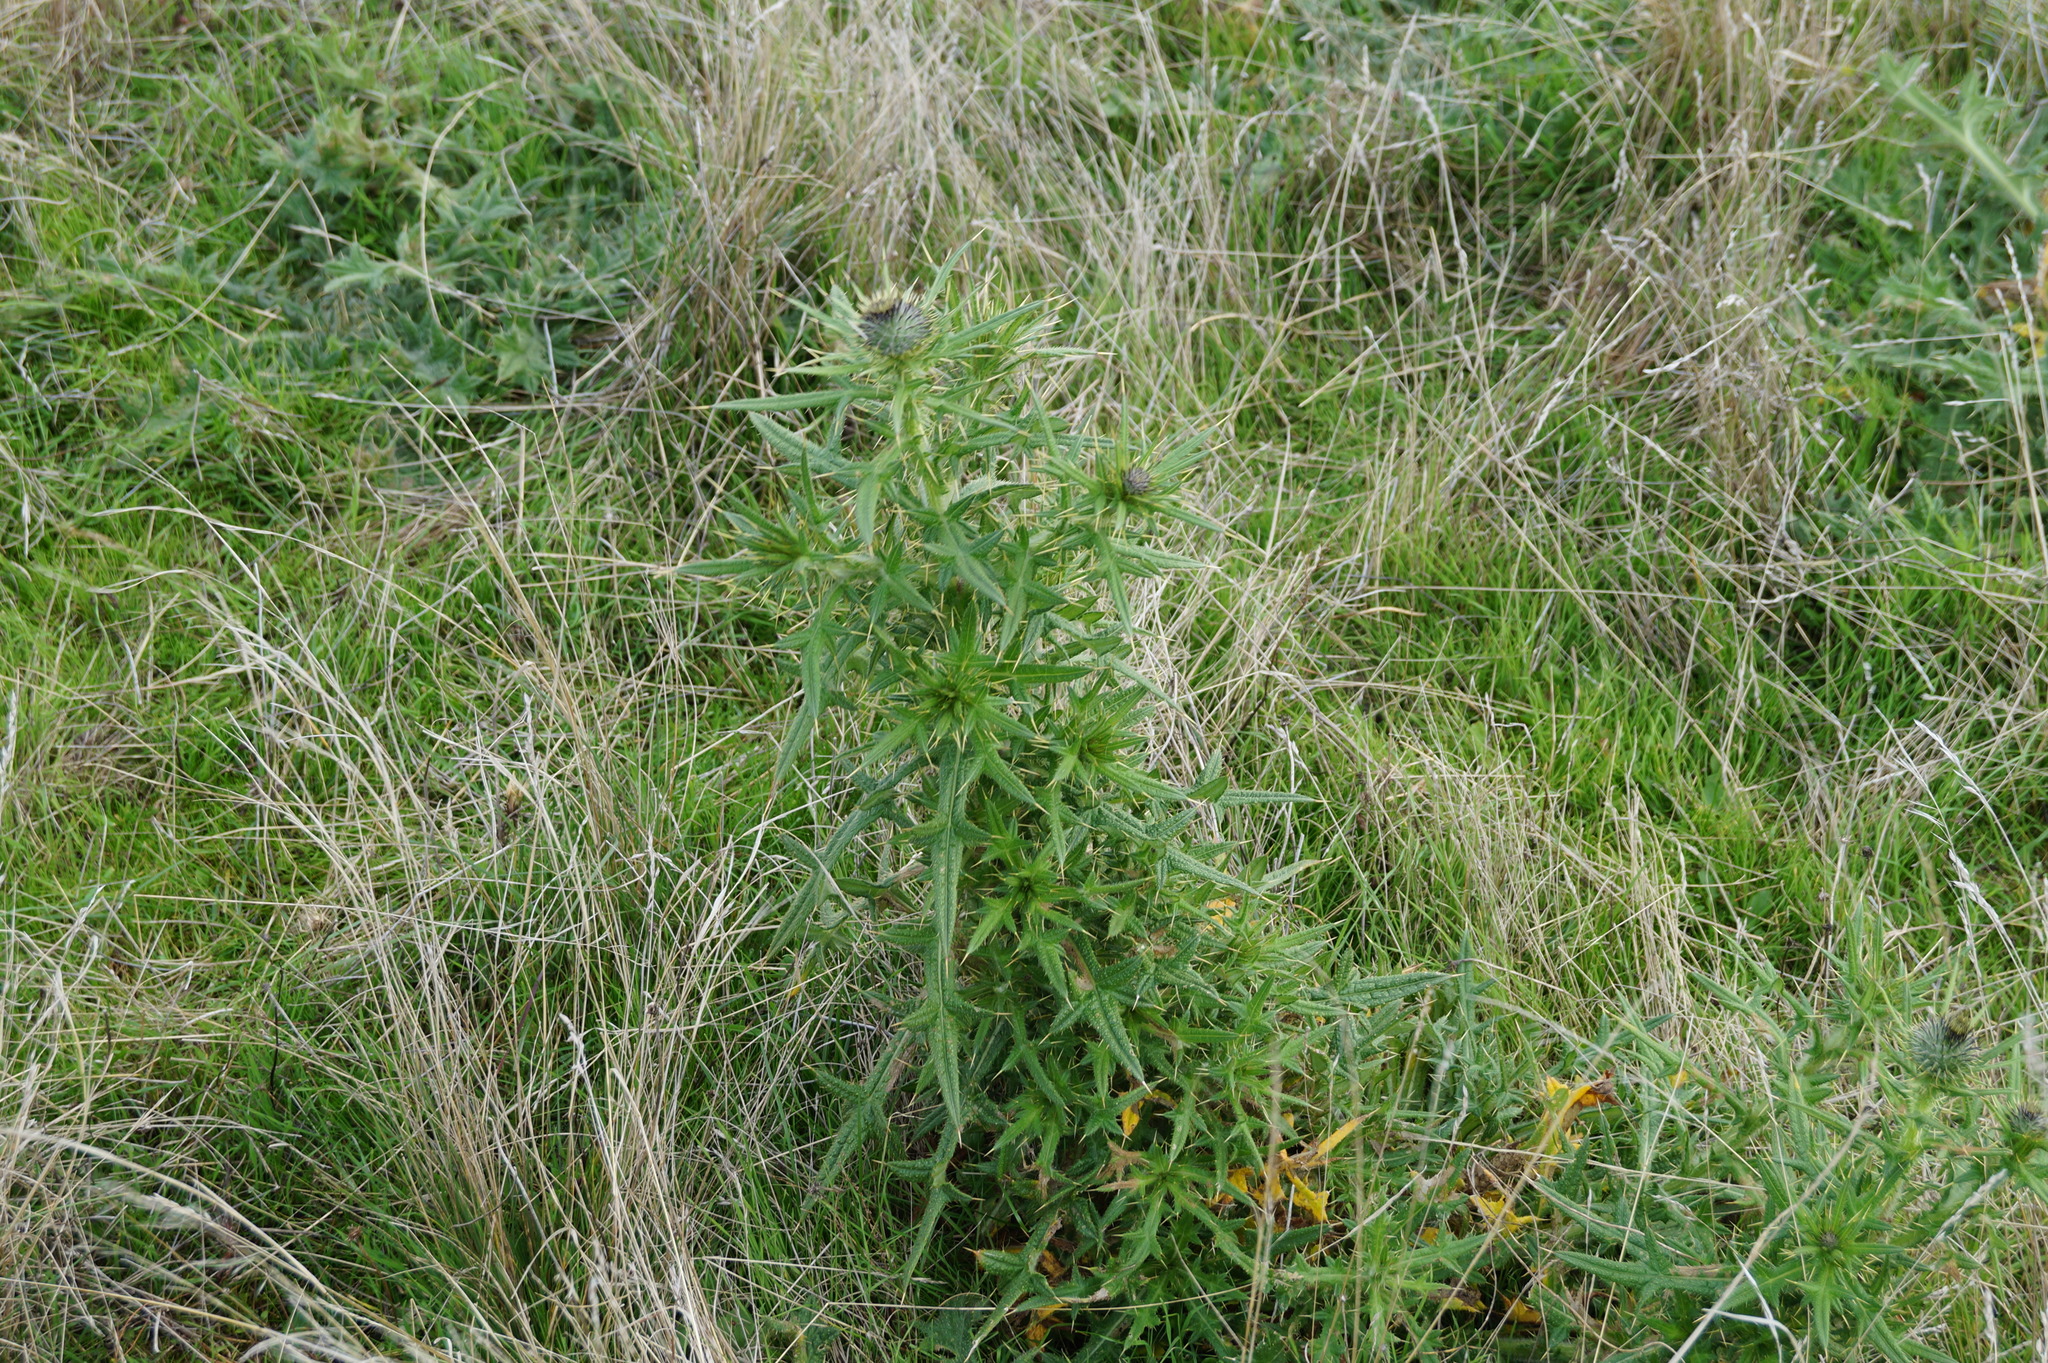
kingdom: Plantae
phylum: Tracheophyta
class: Magnoliopsida
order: Asterales
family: Asteraceae
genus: Cirsium
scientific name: Cirsium vulgare
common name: Bull thistle
